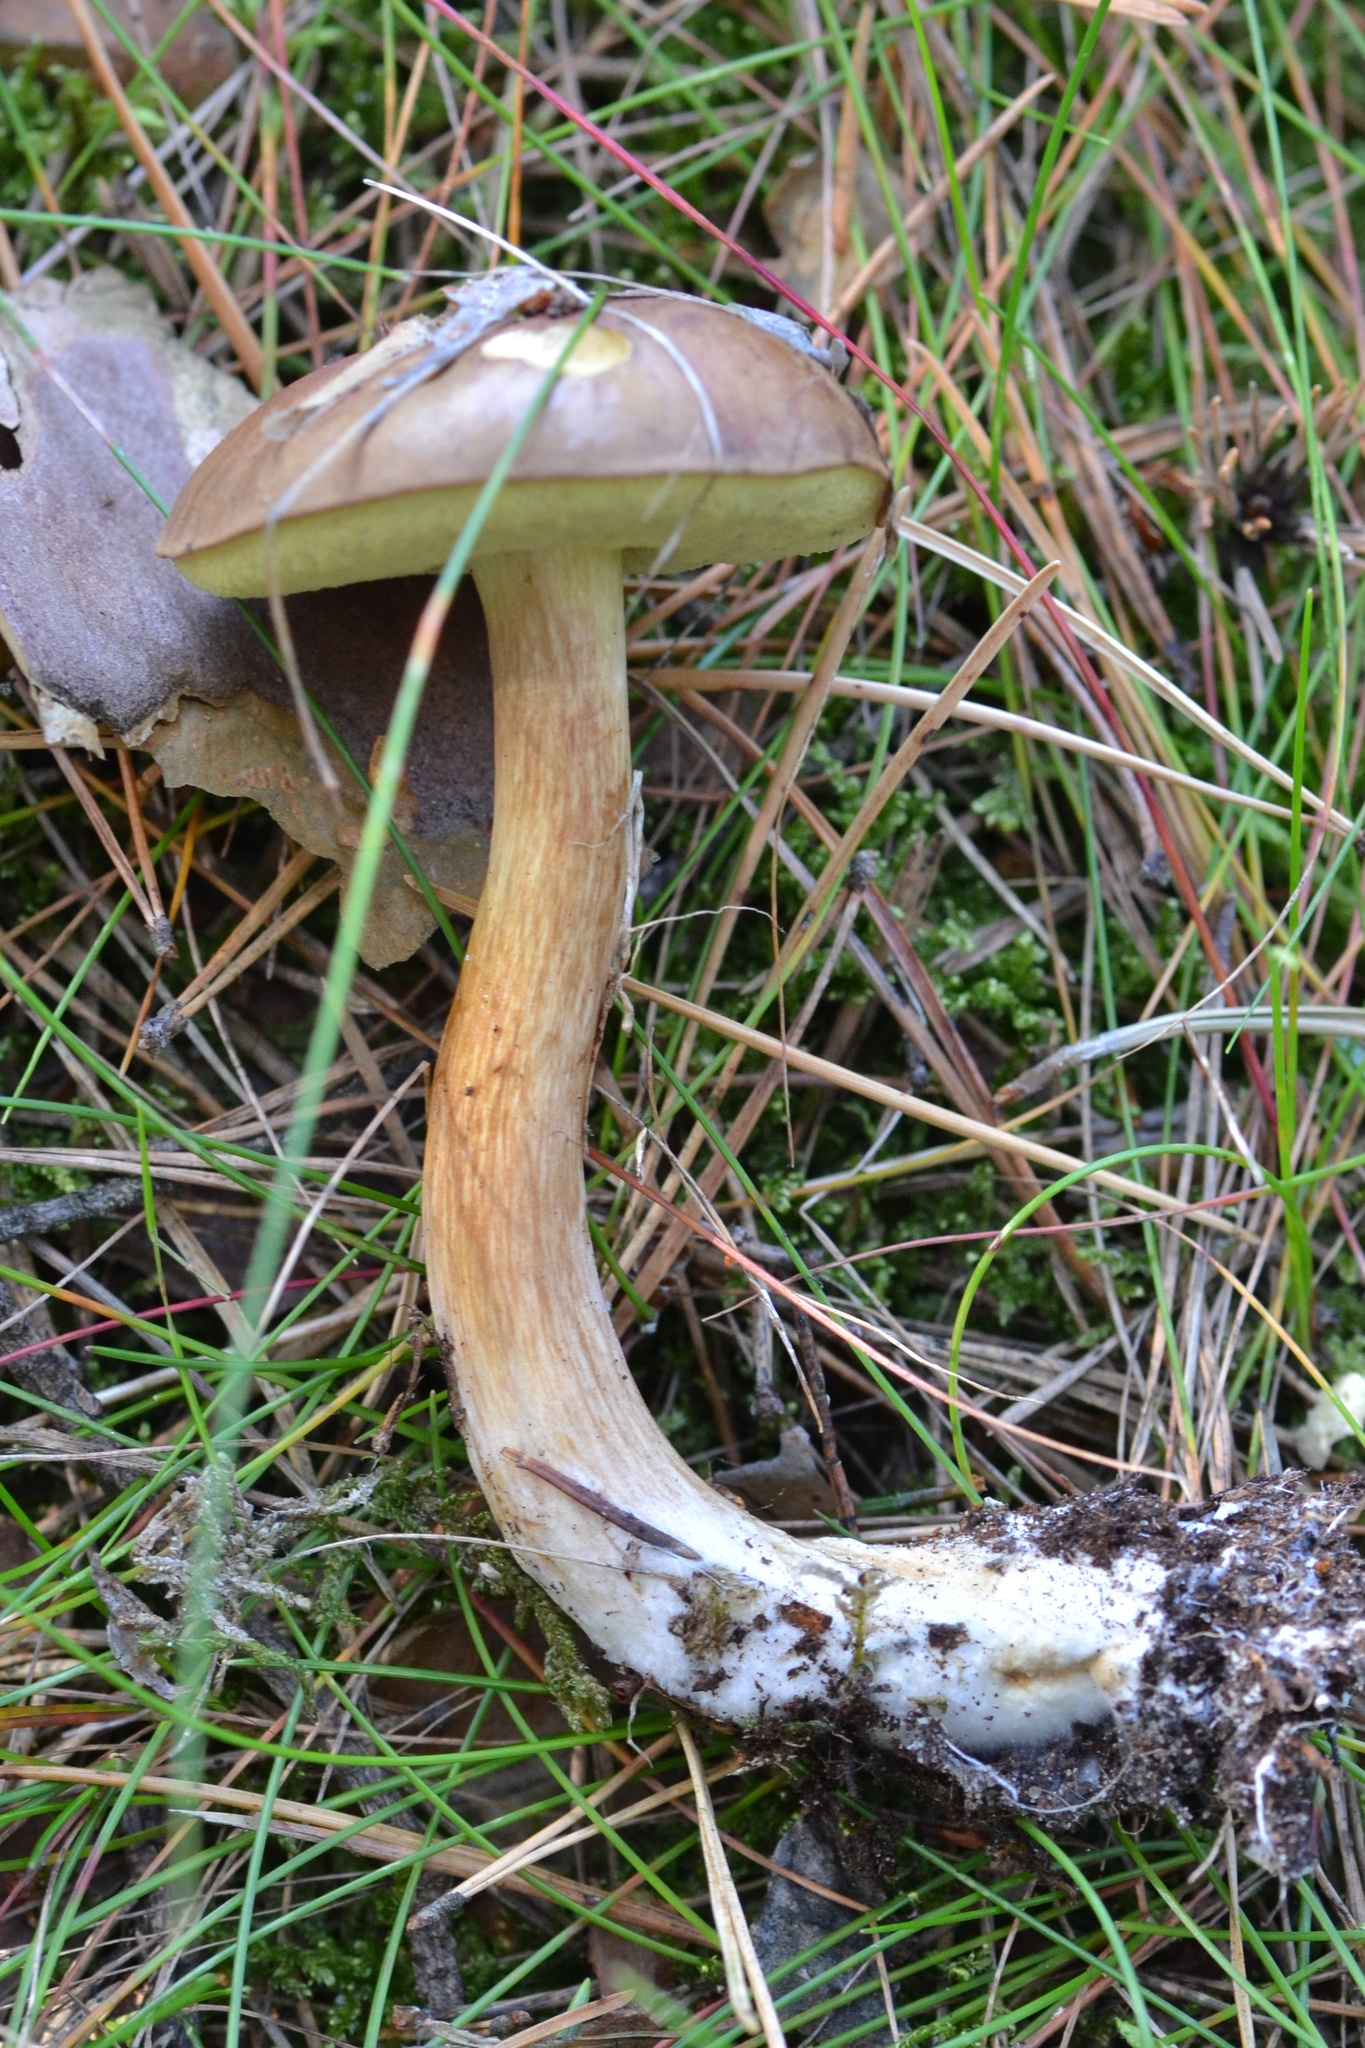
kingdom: Fungi
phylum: Basidiomycota
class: Agaricomycetes
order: Boletales
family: Boletaceae
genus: Imleria
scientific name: Imleria badia
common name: Bay bolete
